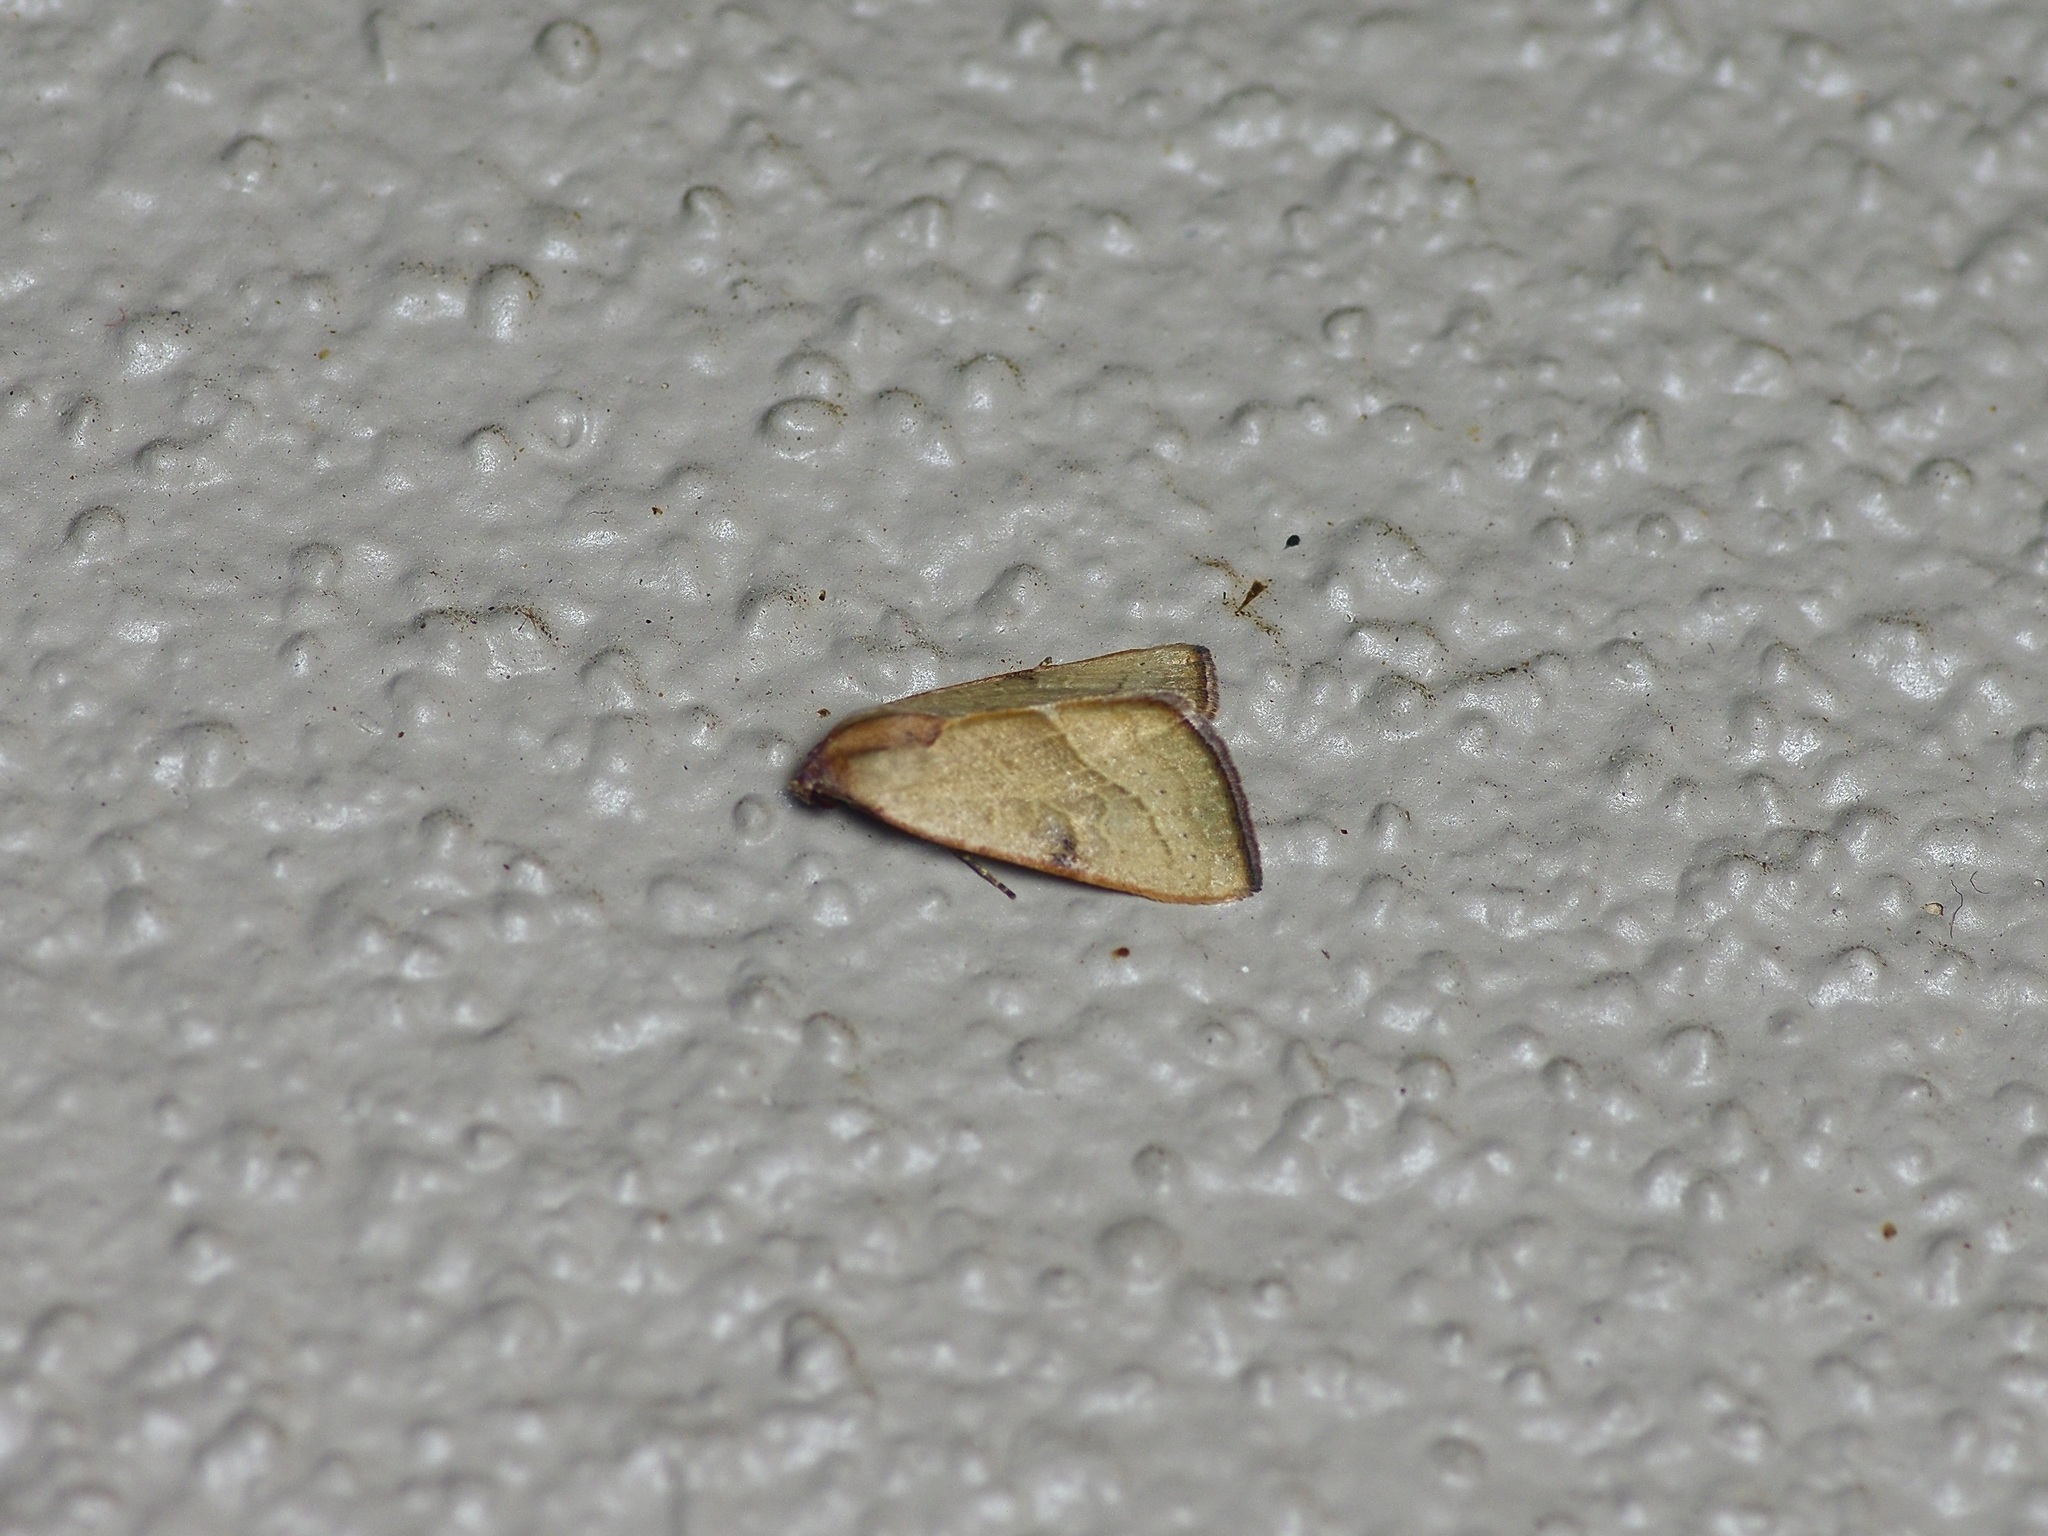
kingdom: Animalia
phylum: Arthropoda
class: Insecta
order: Lepidoptera
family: Noctuidae
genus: Galgula
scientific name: Galgula partita
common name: Wedgeling
